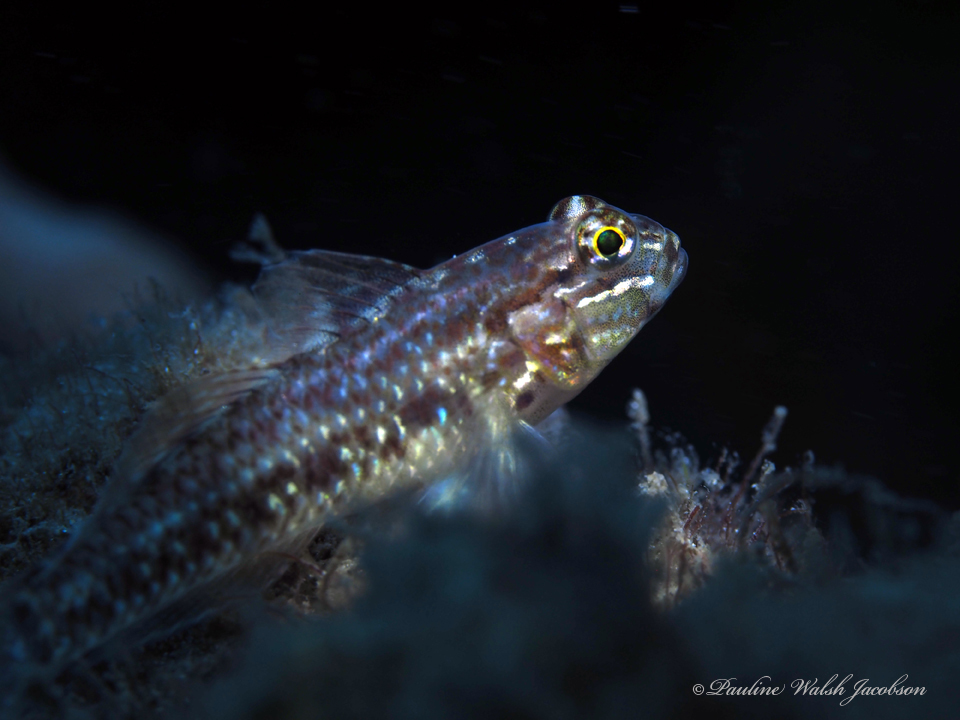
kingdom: Animalia
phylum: Chordata
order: Perciformes
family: Gobiidae
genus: Coryphopterus
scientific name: Coryphopterus dicrus
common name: Colon goby
